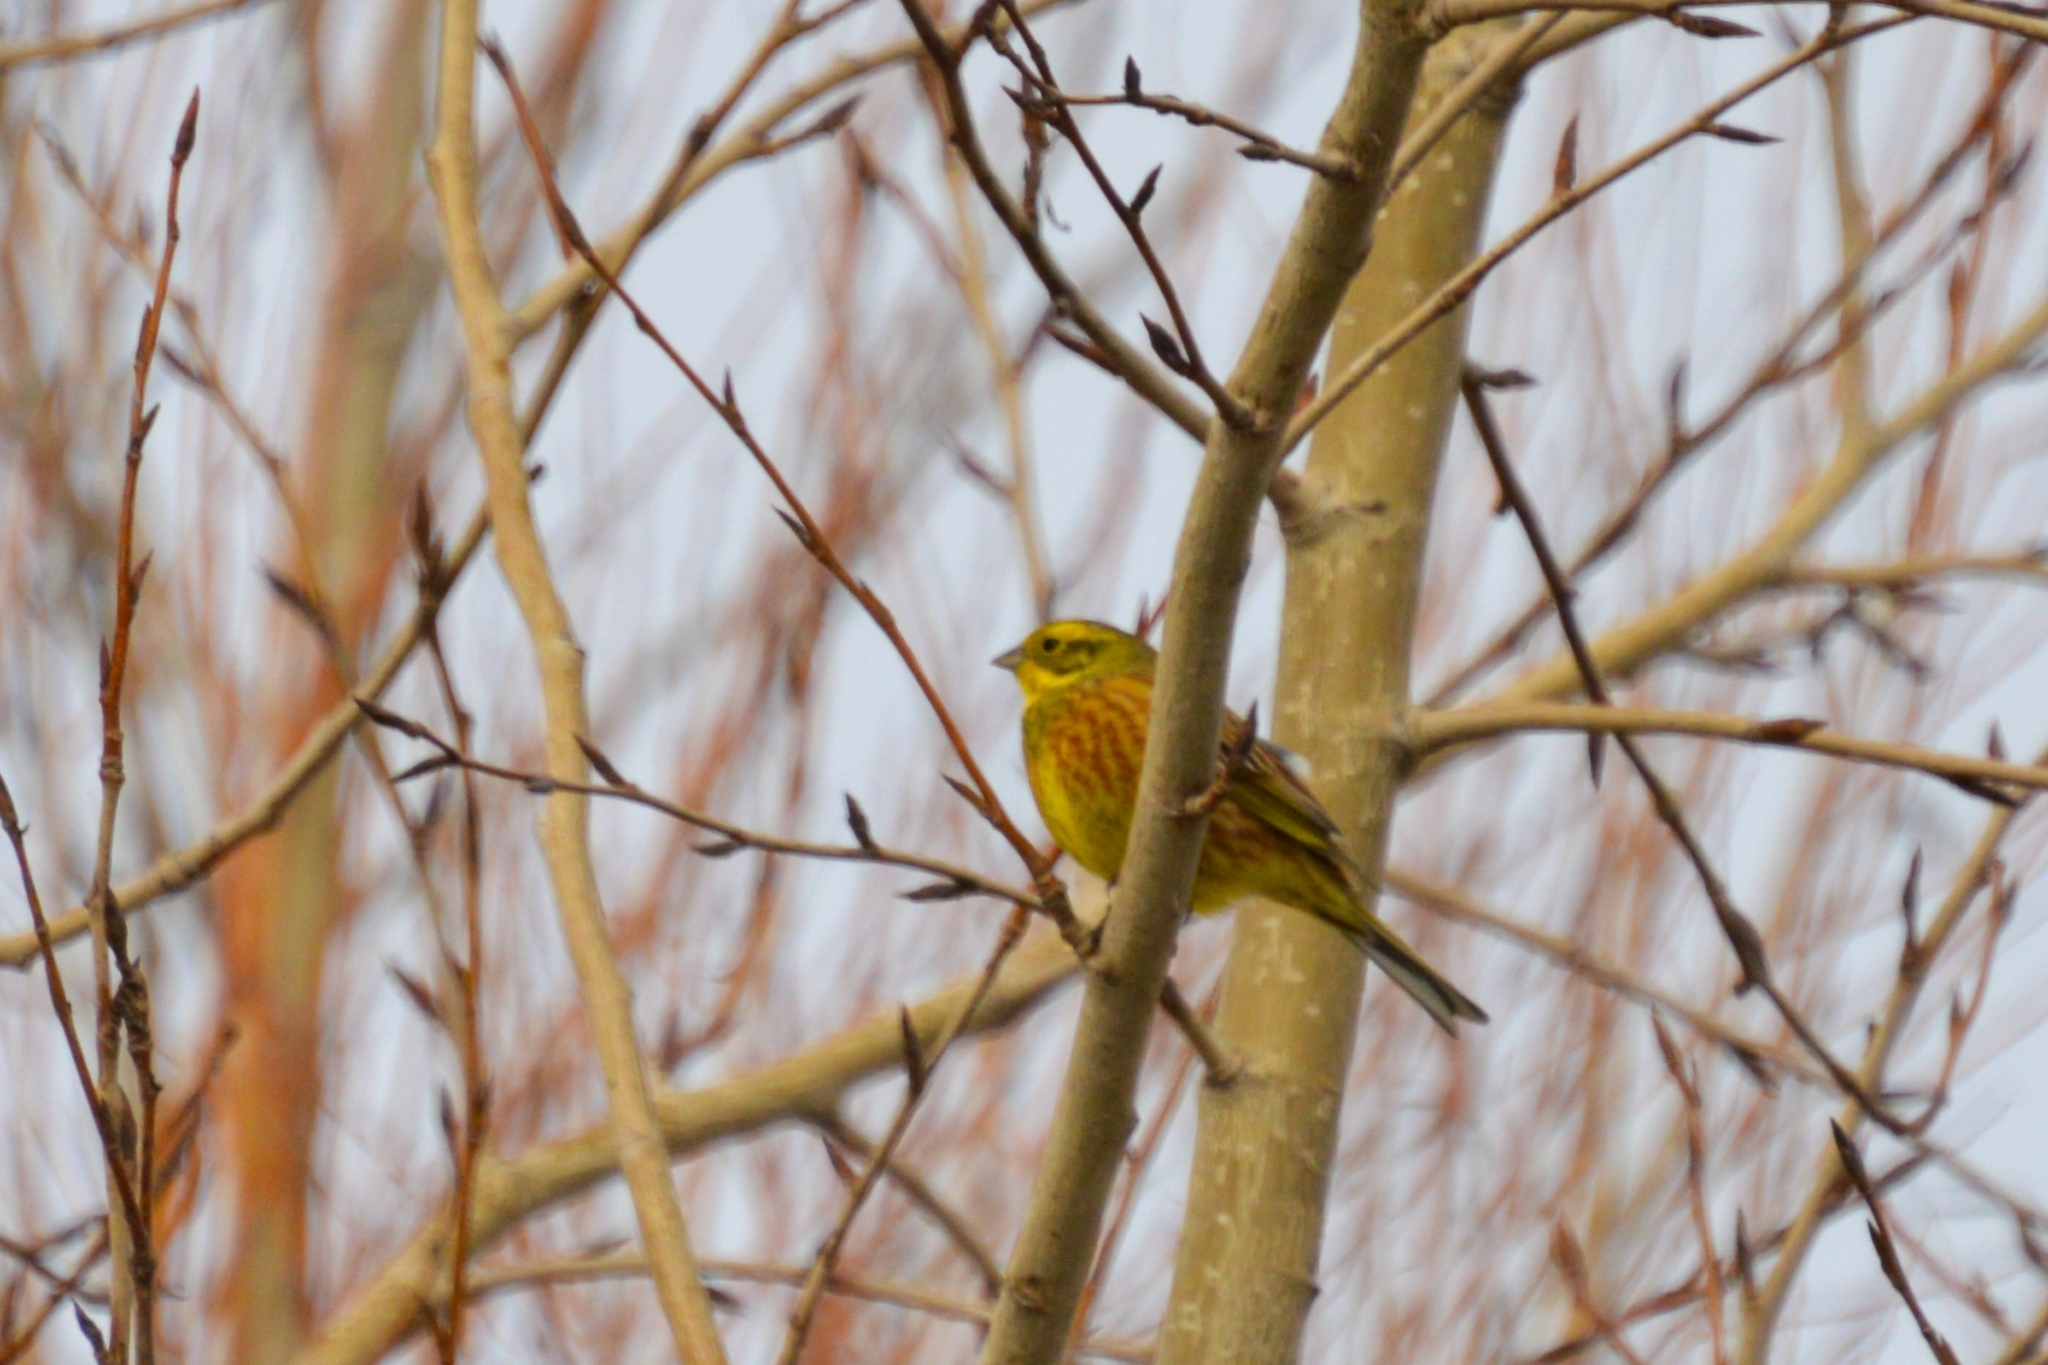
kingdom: Animalia
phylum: Chordata
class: Aves
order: Passeriformes
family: Emberizidae
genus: Emberiza
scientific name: Emberiza citrinella
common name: Yellowhammer
